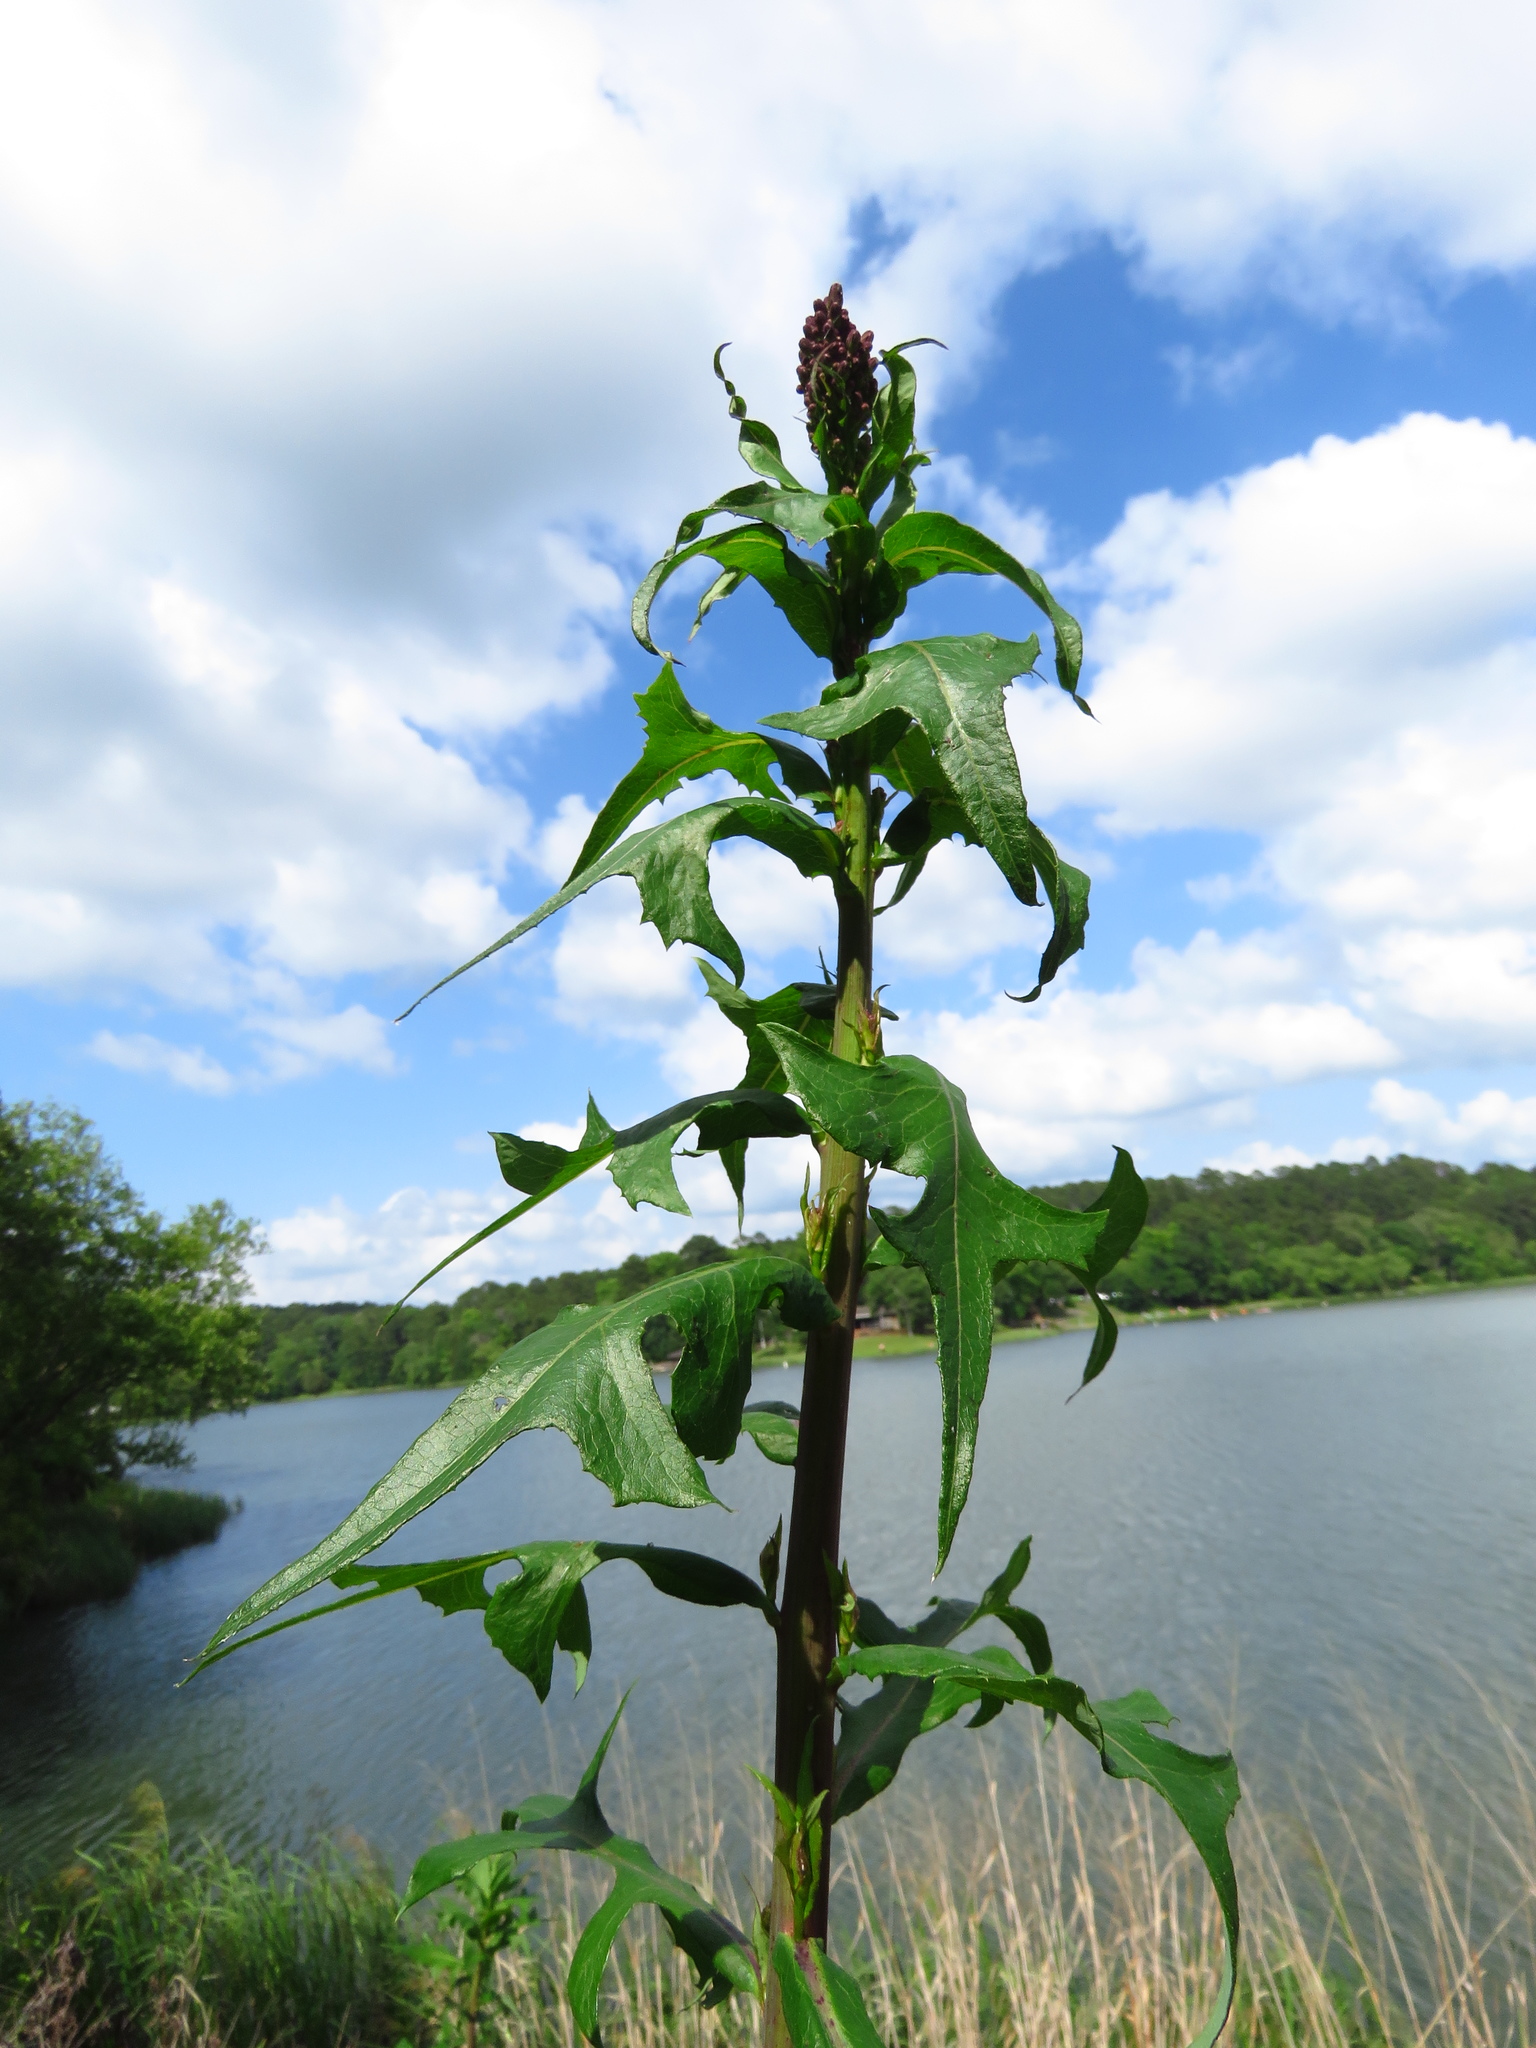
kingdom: Plantae
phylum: Tracheophyta
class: Magnoliopsida
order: Asterales
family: Asteraceae
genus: Lactuca
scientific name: Lactuca canadensis
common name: Canada lettuce
